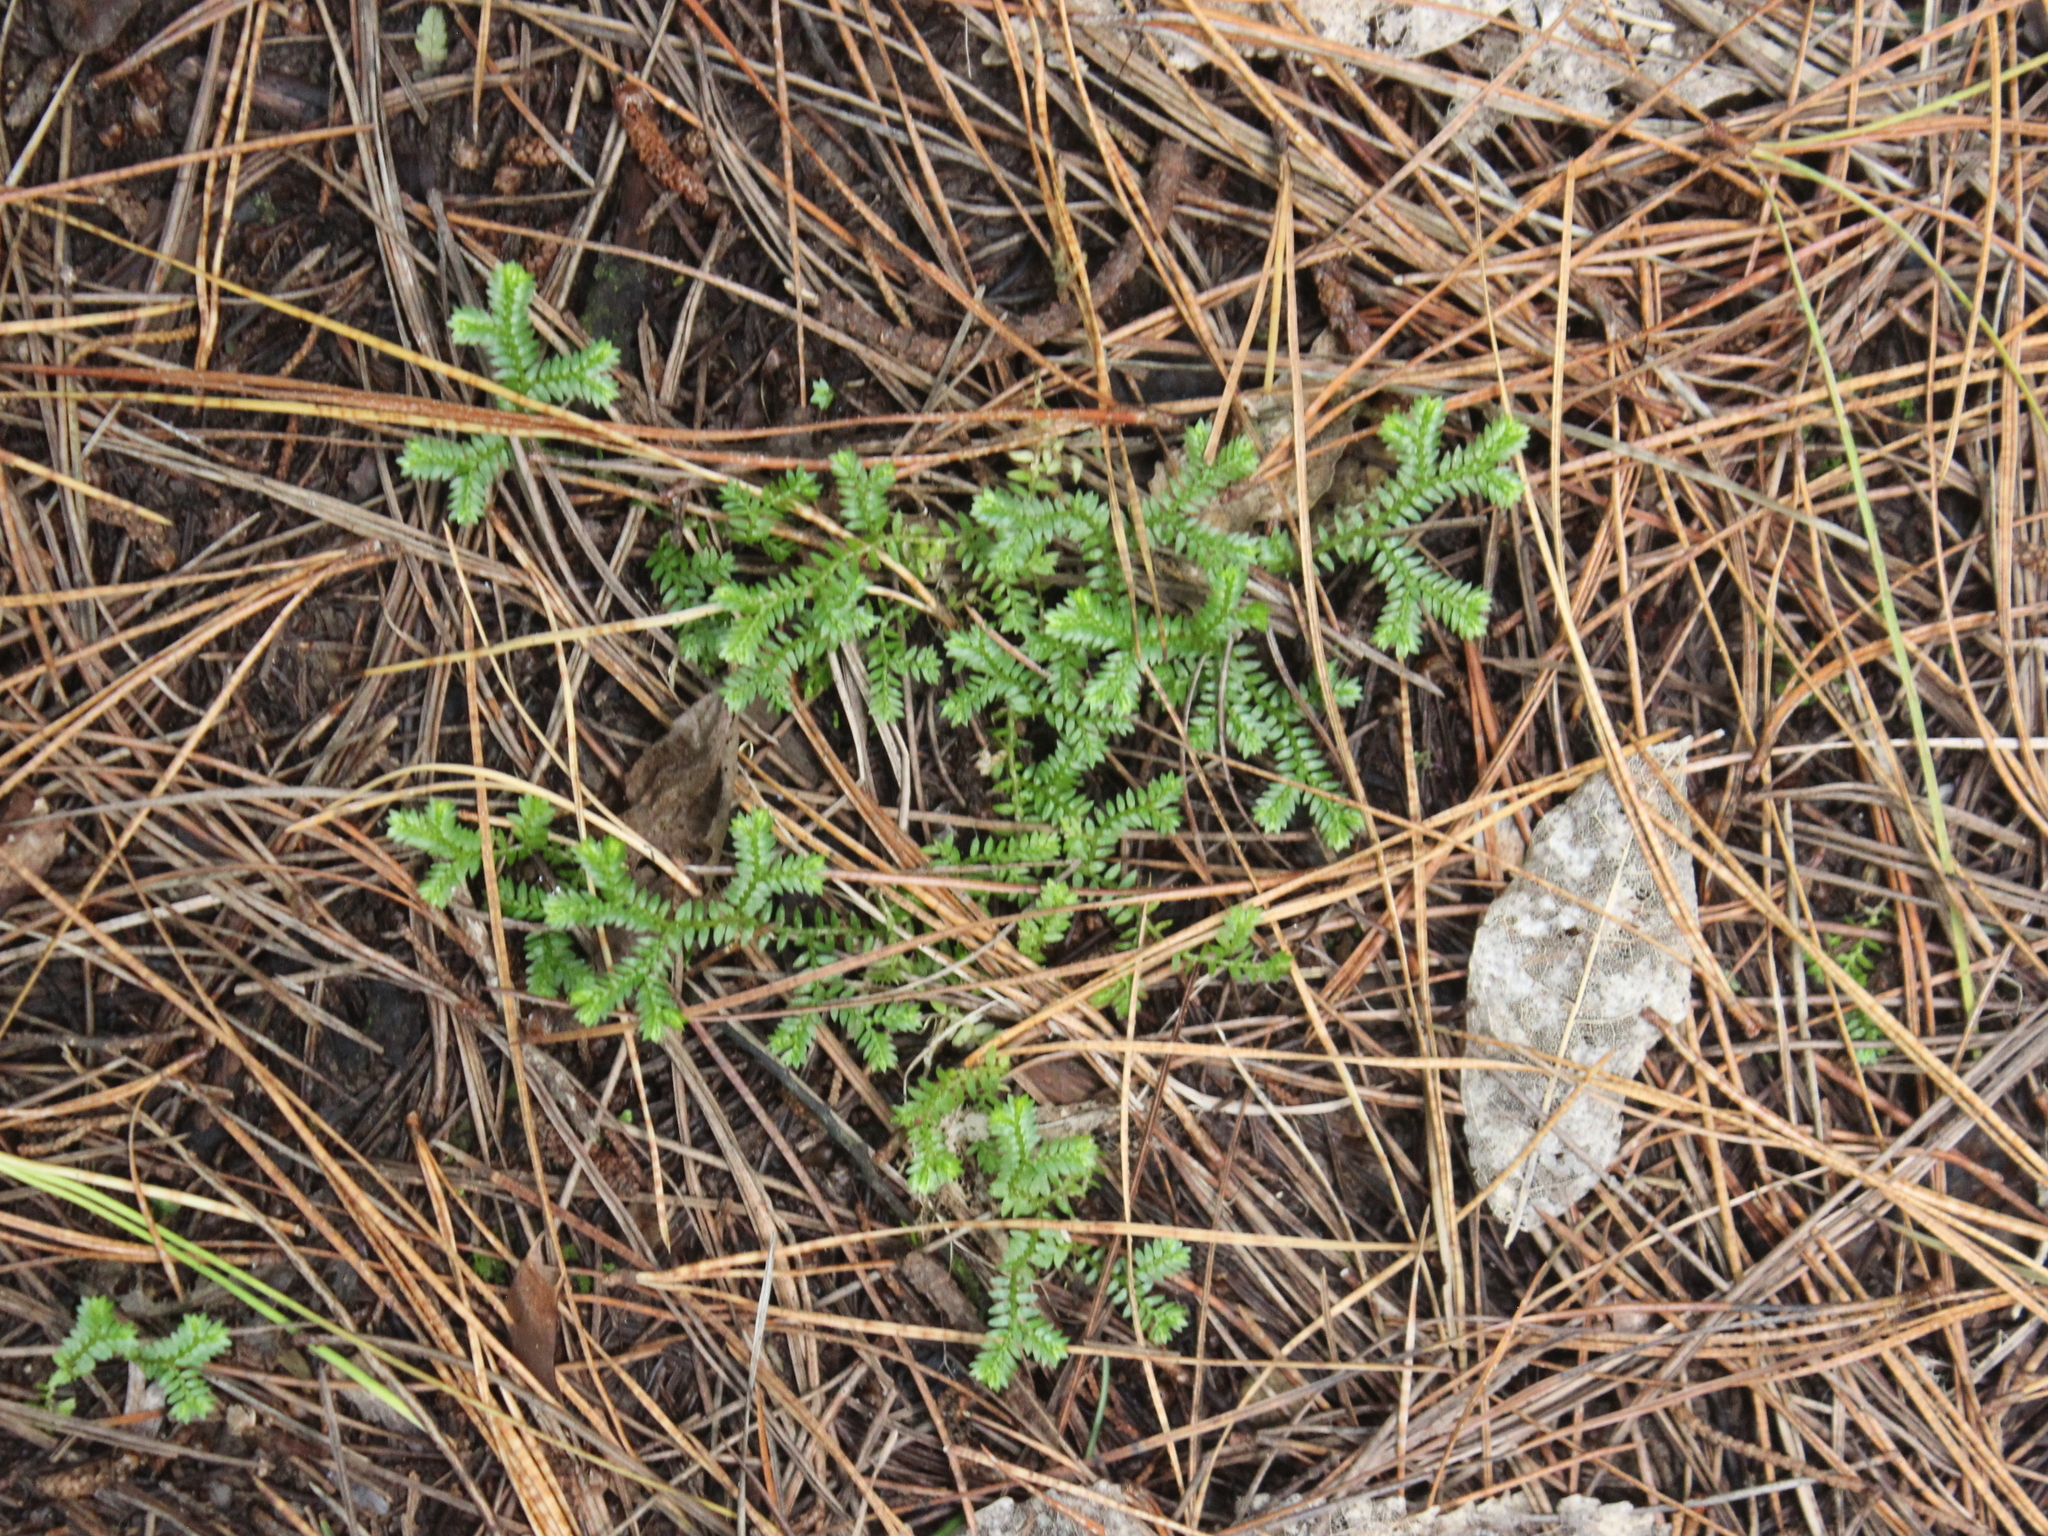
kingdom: Plantae
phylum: Tracheophyta
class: Lycopodiopsida
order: Selaginellales
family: Selaginellaceae
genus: Selaginella
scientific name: Selaginella kraussiana
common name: Krauss' spikemoss
